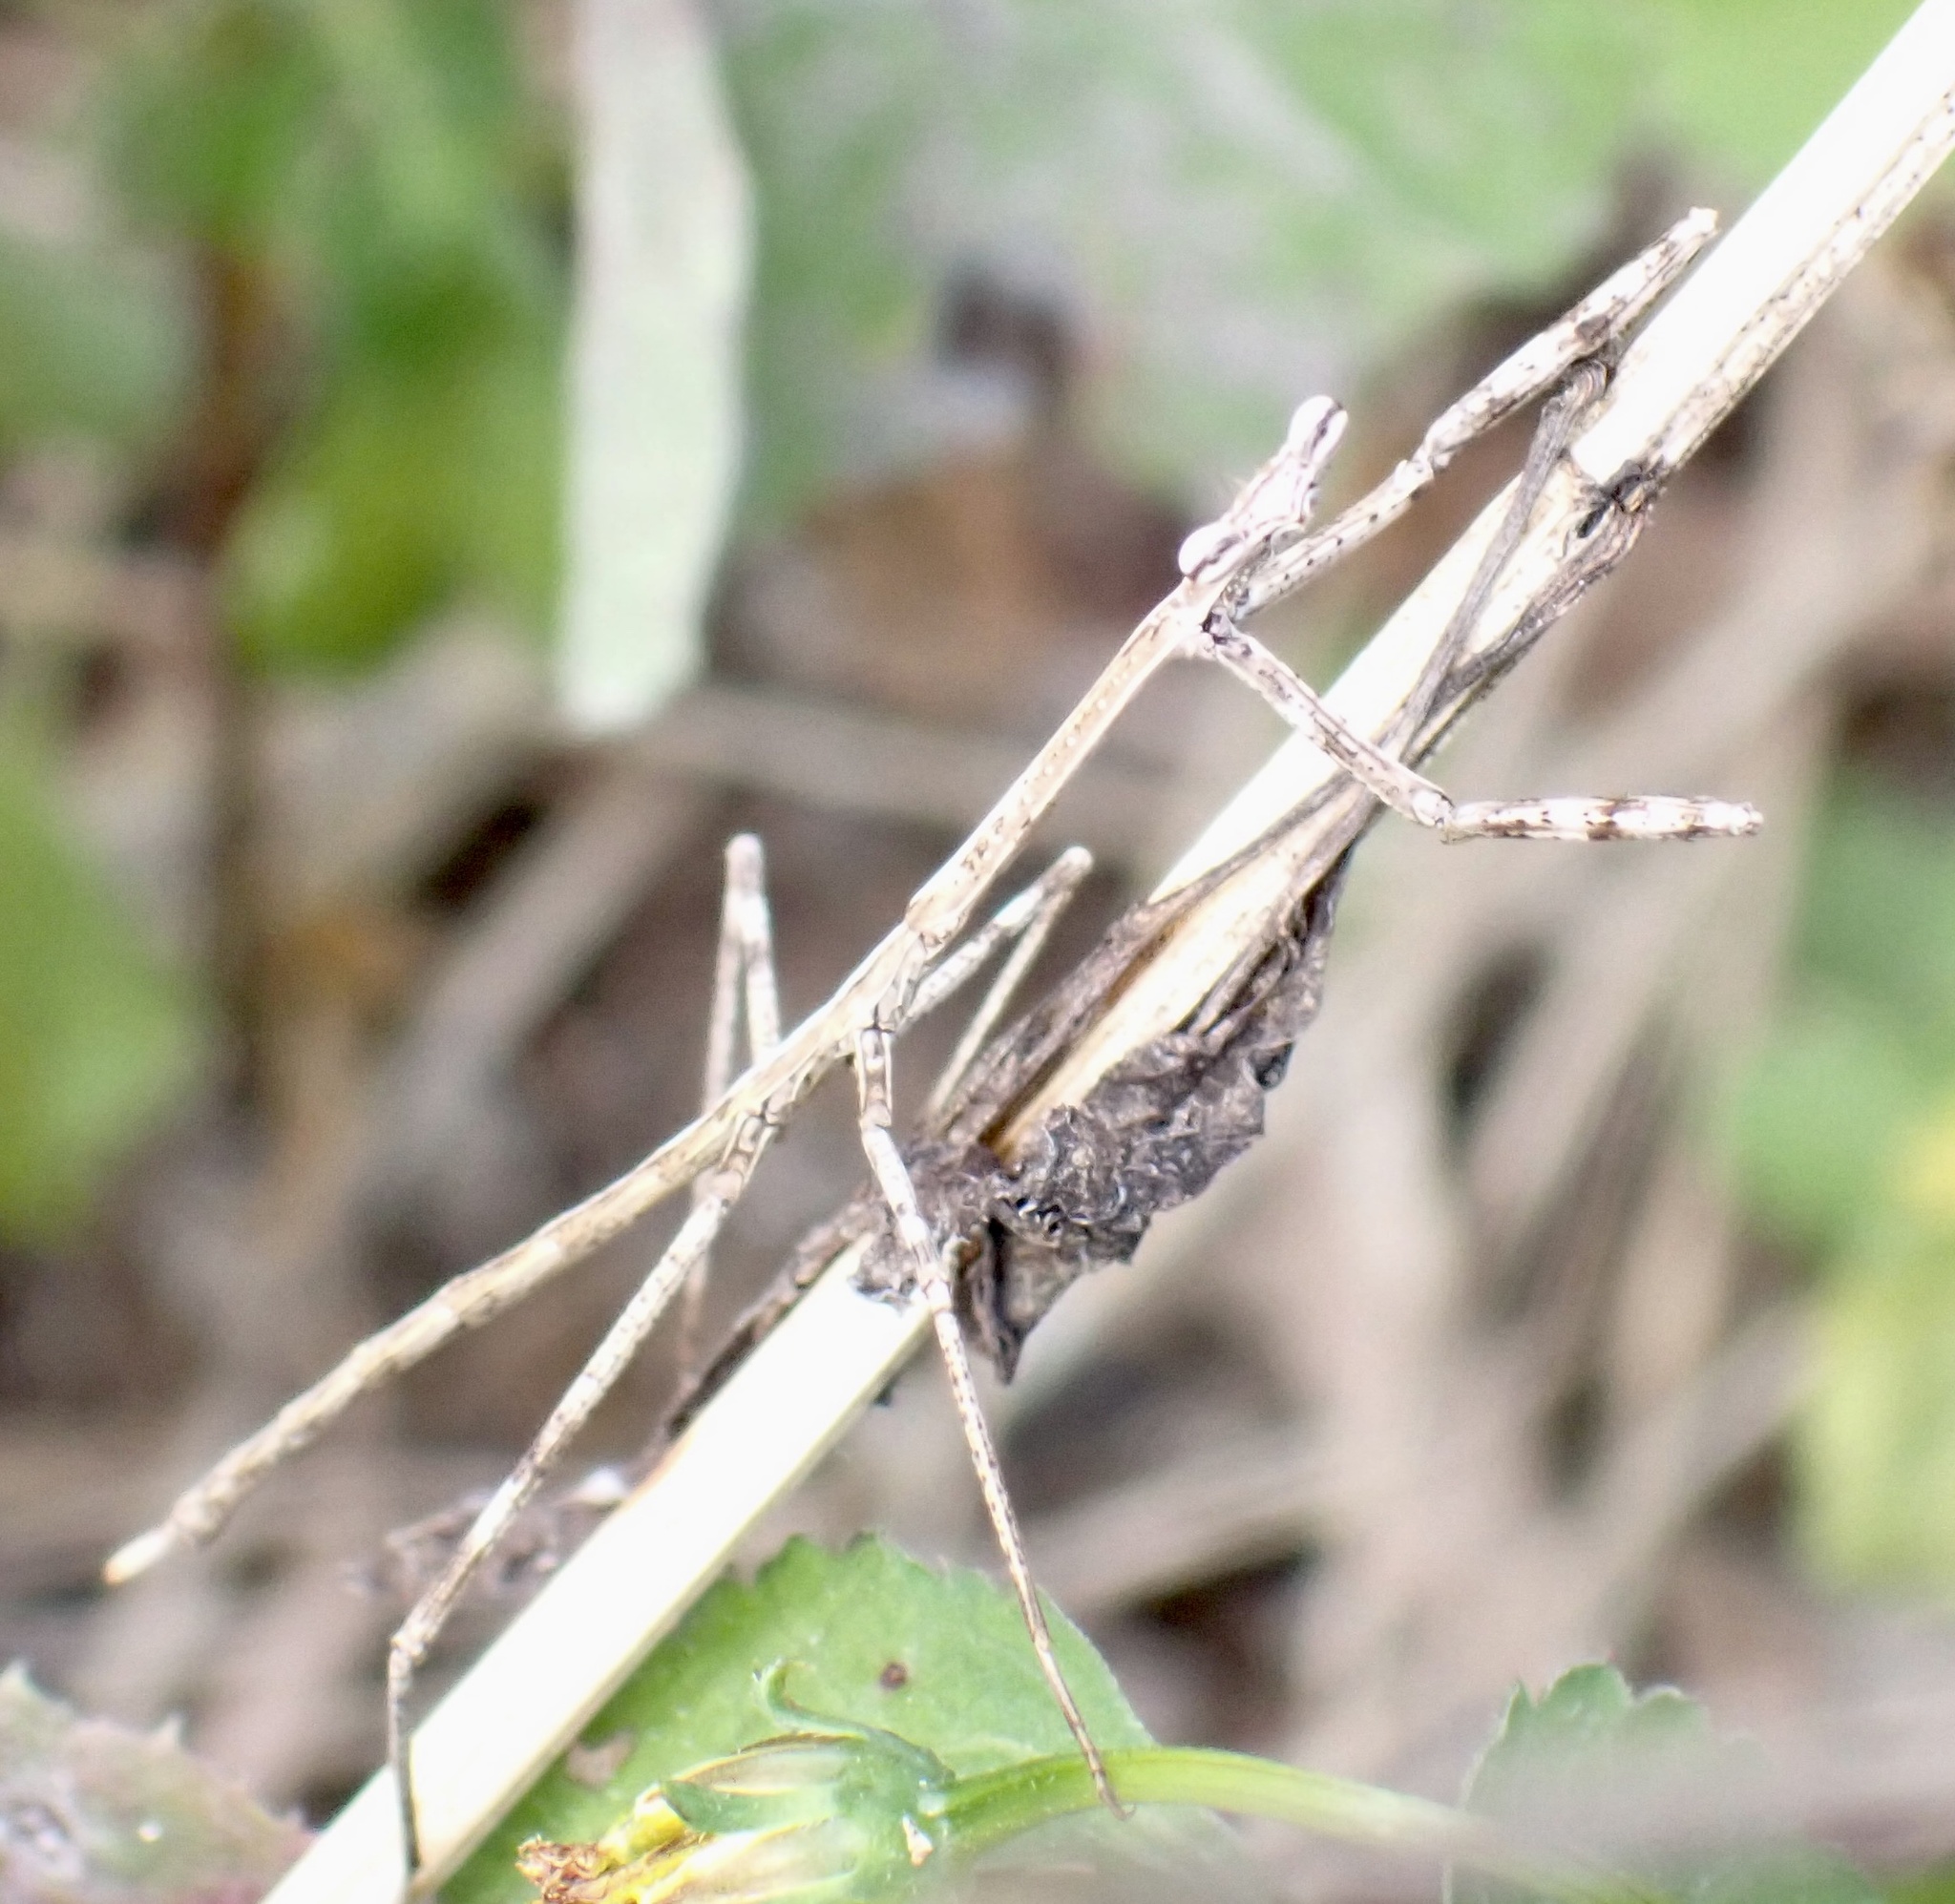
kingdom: Animalia
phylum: Arthropoda
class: Insecta
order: Mantodea
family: Mantidae
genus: Archimantis
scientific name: Archimantis latistyla
